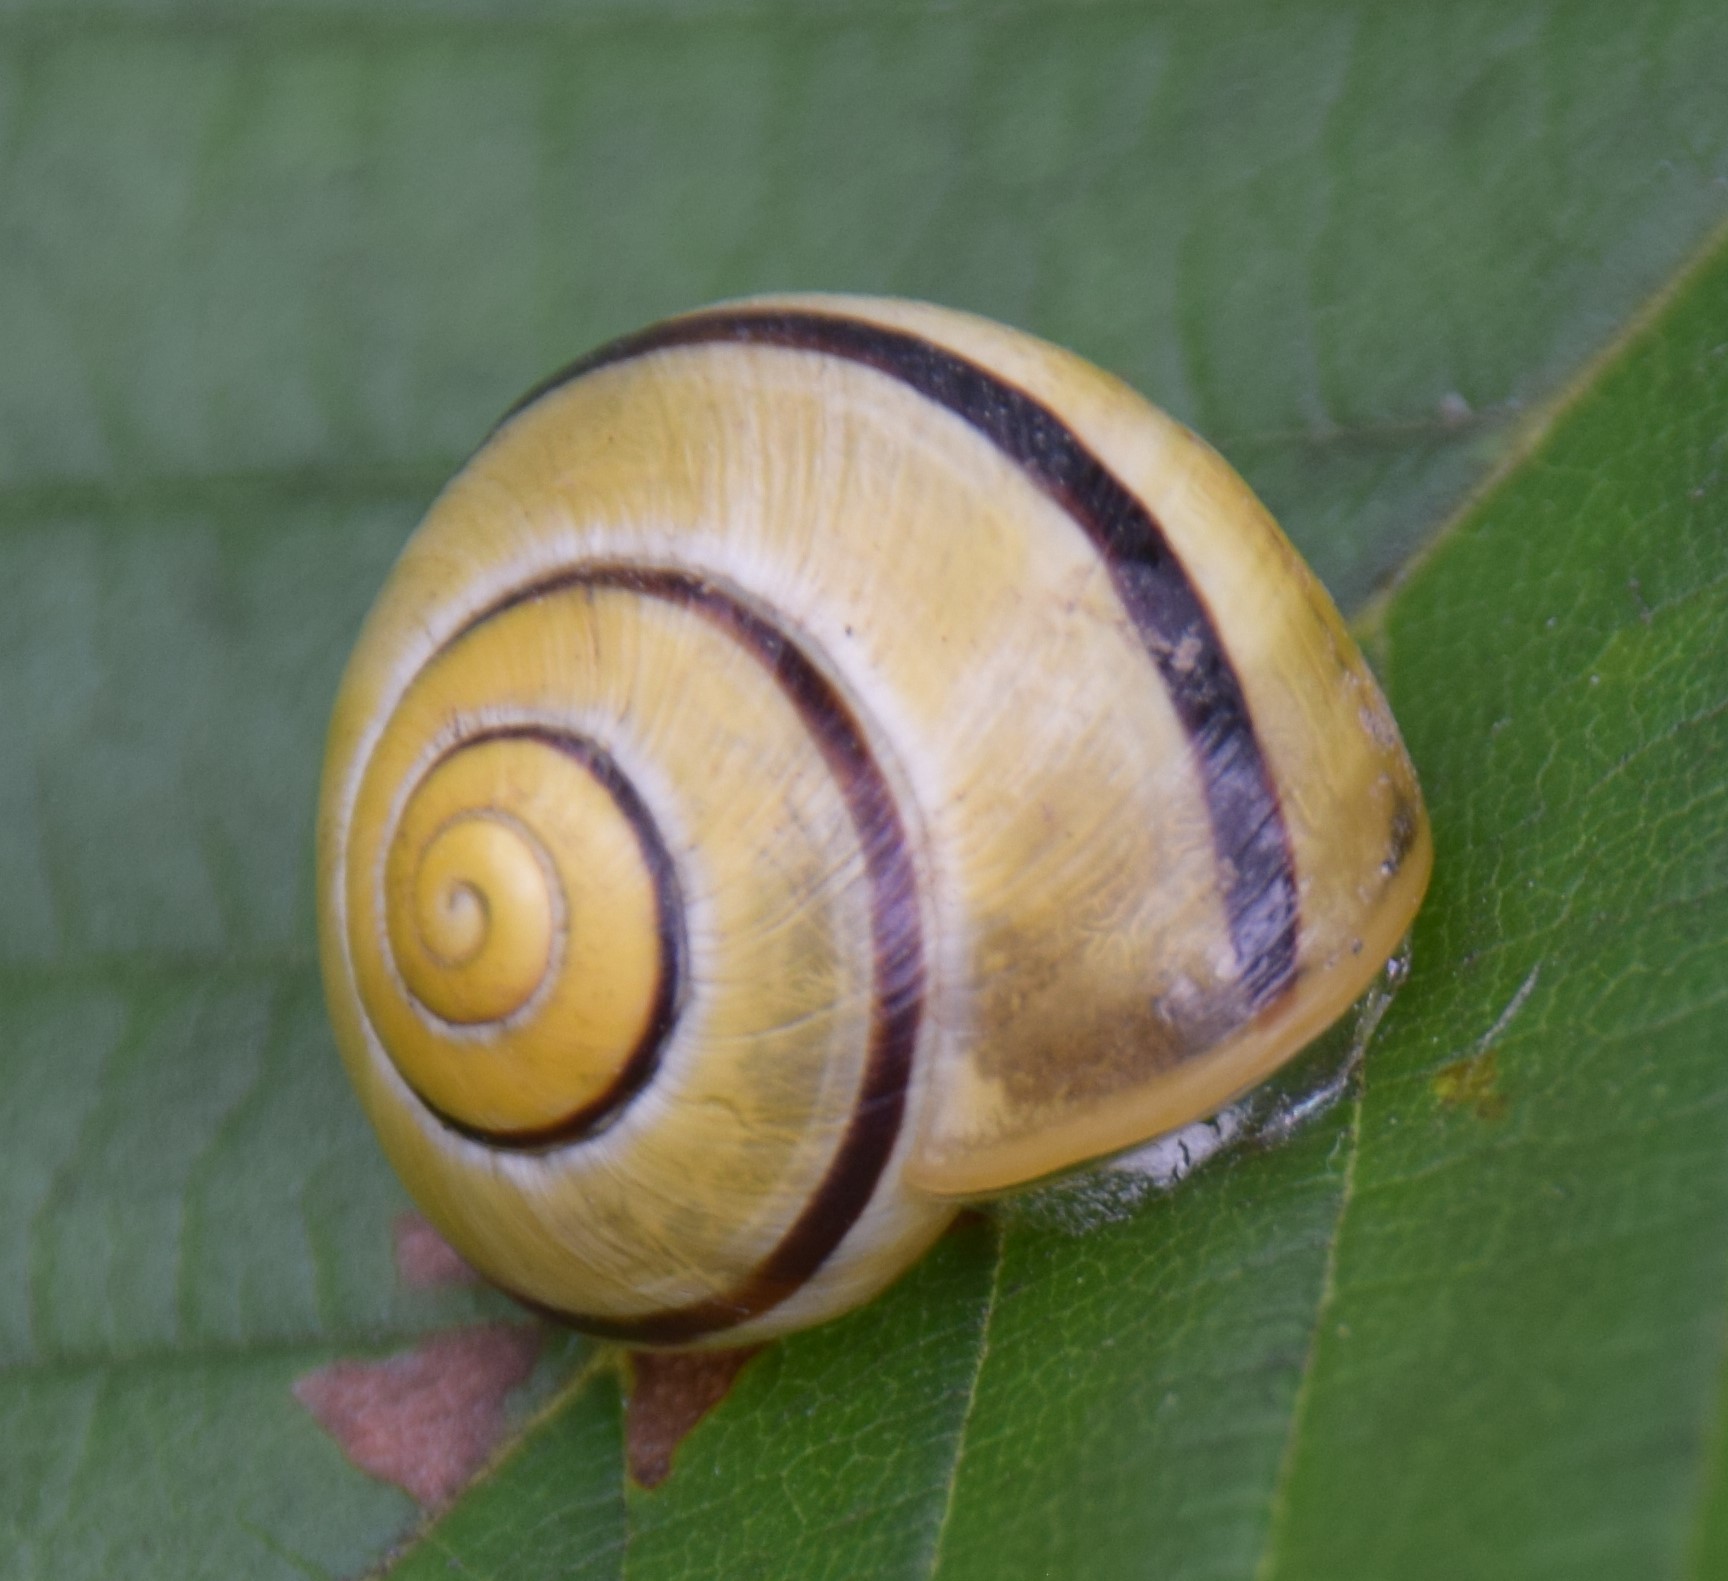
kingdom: Animalia
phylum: Mollusca
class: Gastropoda
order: Stylommatophora
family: Helicidae
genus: Cepaea
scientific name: Cepaea
